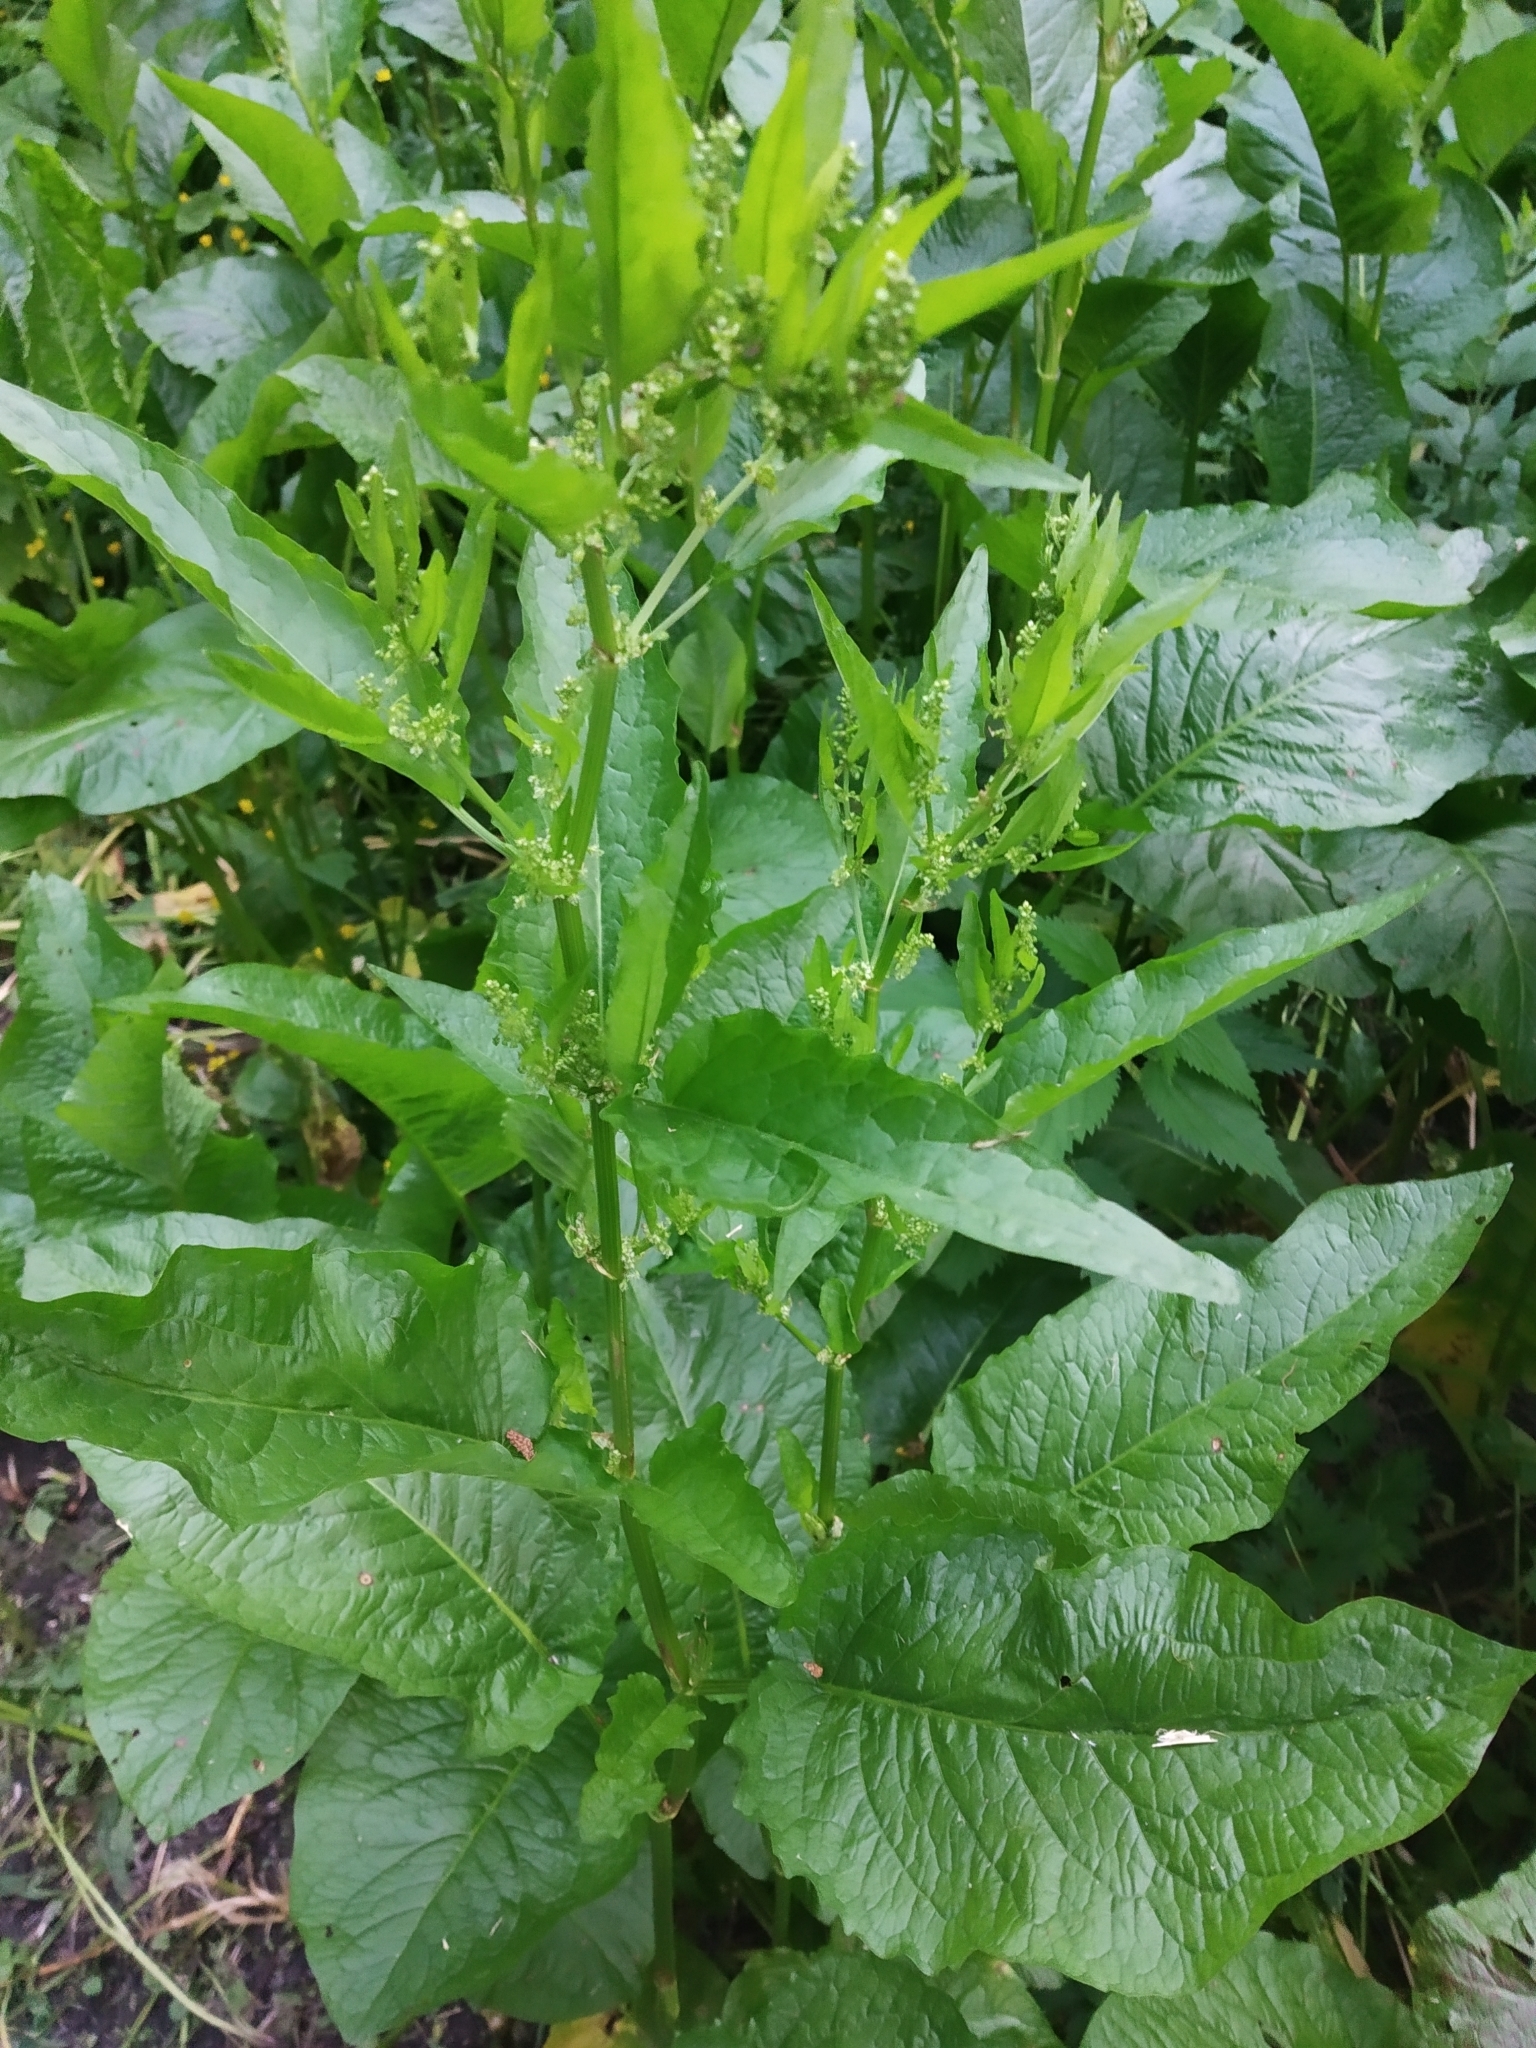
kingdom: Plantae
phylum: Tracheophyta
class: Magnoliopsida
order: Caryophyllales
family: Polygonaceae
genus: Rumex
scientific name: Rumex obtusifolius
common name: Bitter dock
